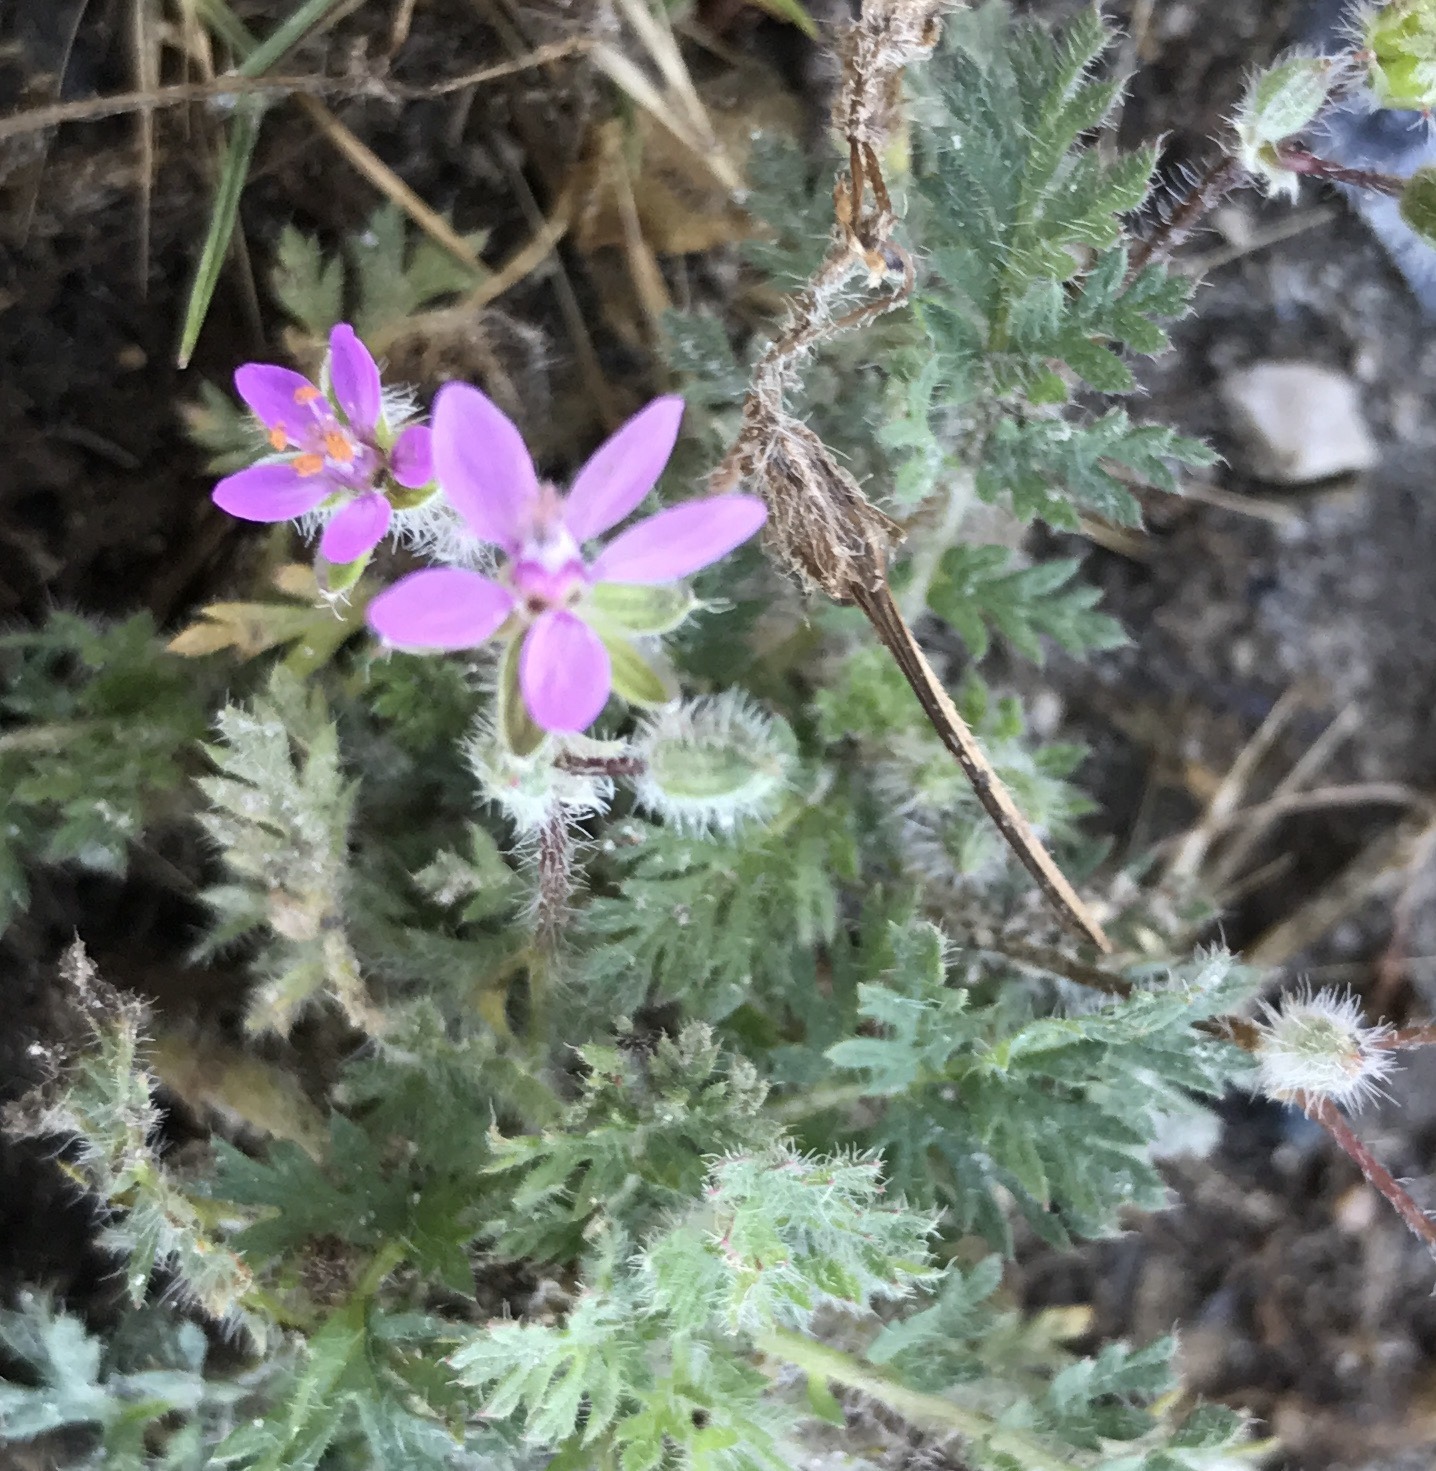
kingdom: Plantae
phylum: Tracheophyta
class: Magnoliopsida
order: Geraniales
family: Geraniaceae
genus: Erodium
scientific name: Erodium cicutarium
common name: Common stork's-bill
